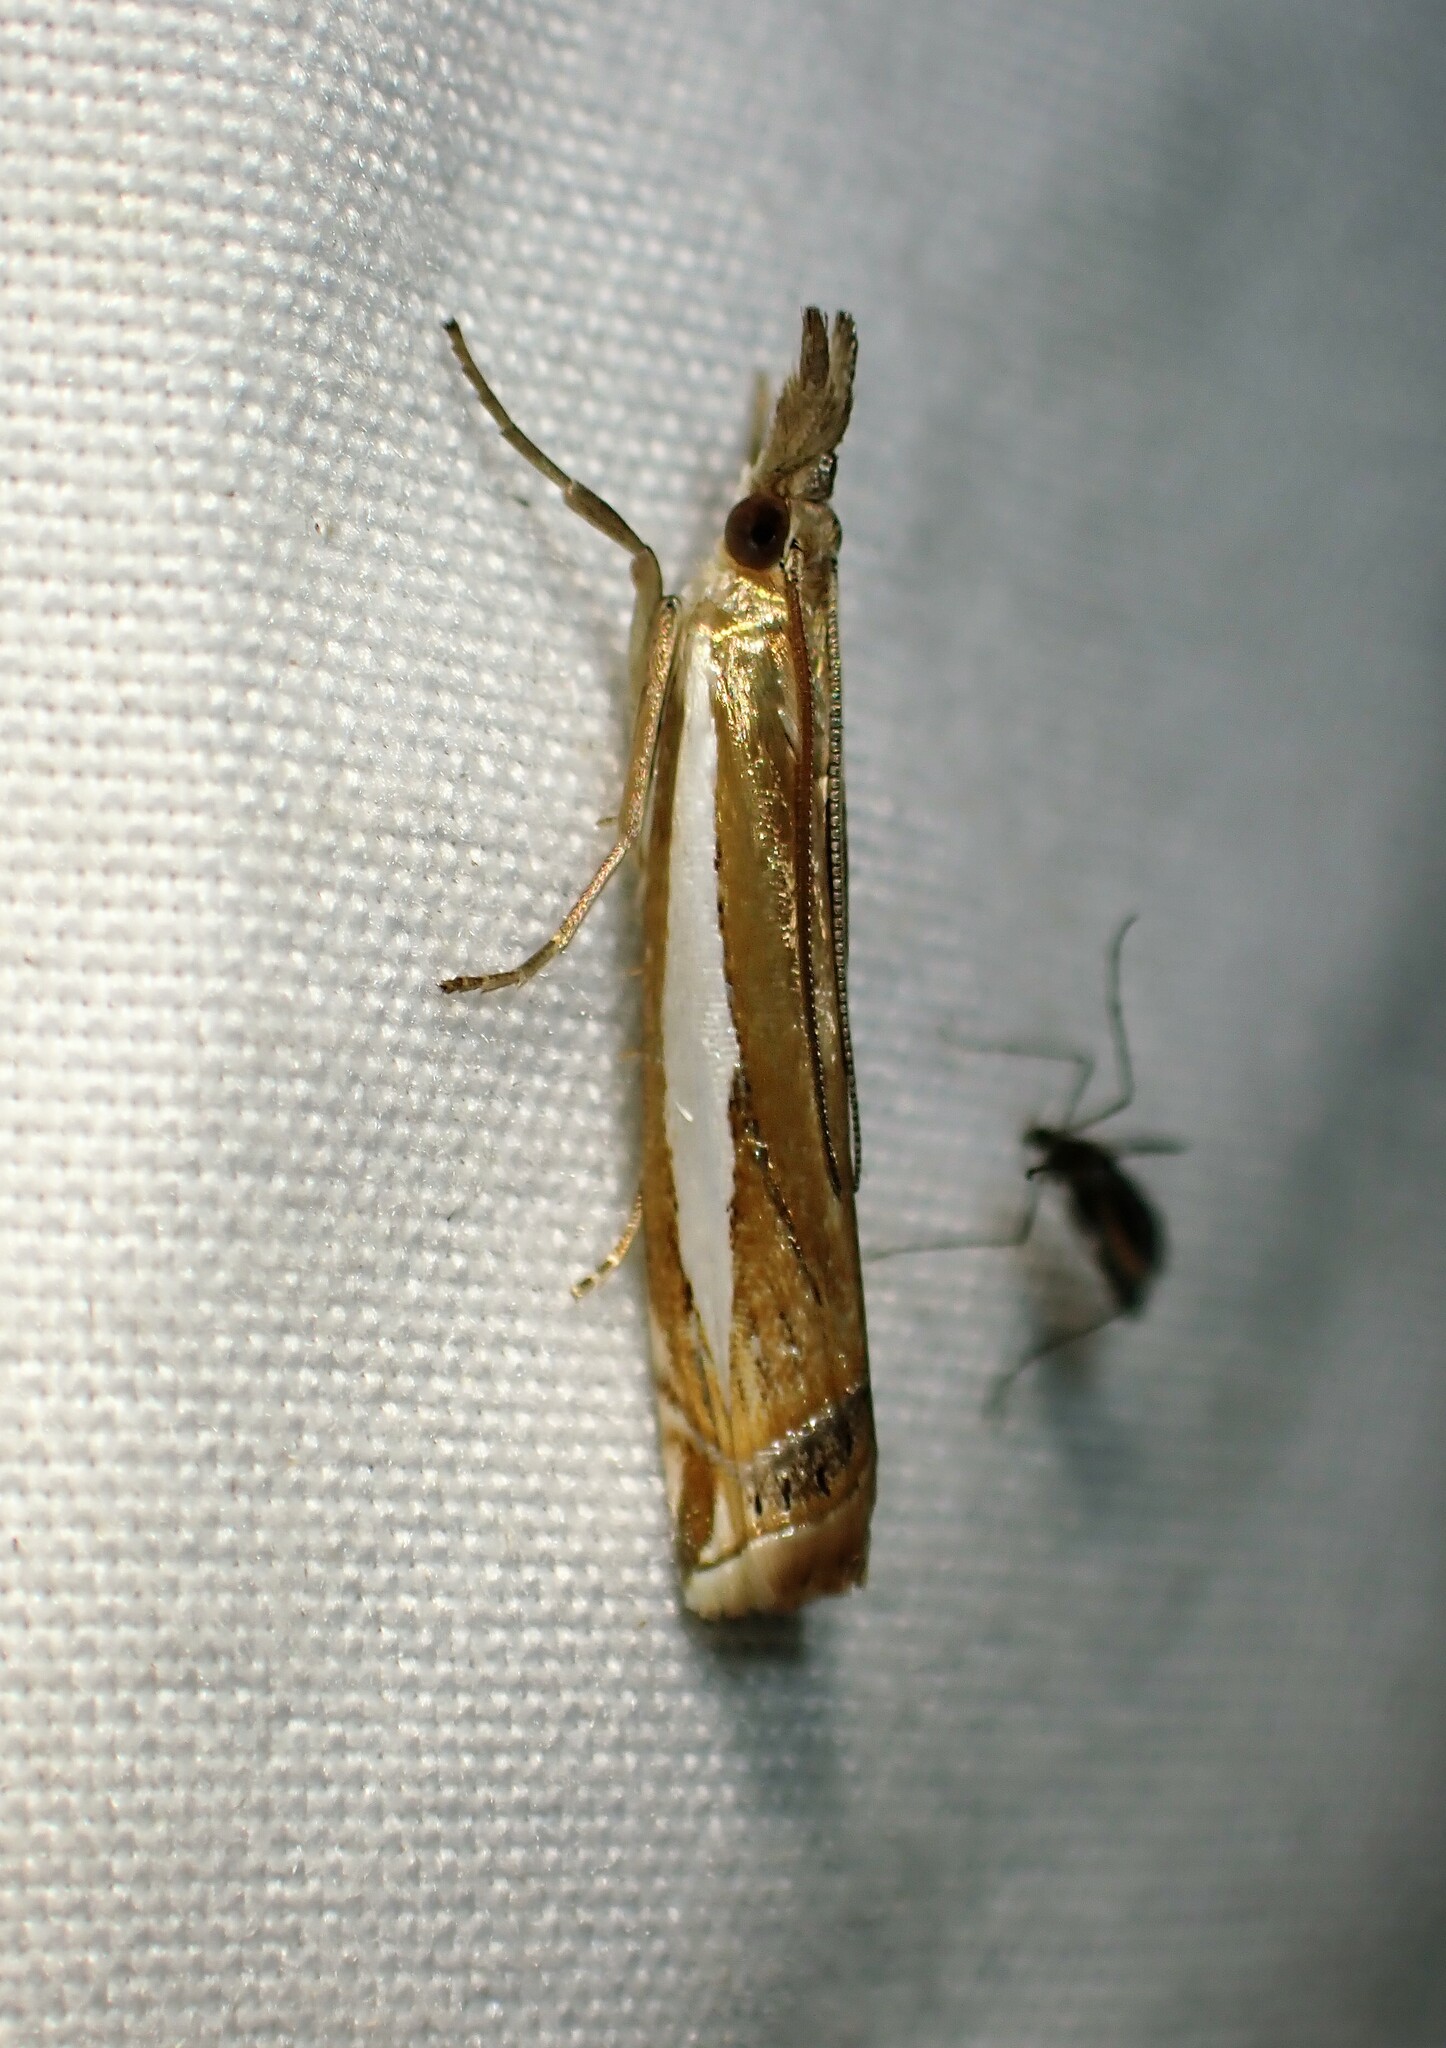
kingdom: Animalia
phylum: Arthropoda
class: Insecta
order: Lepidoptera
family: Crambidae
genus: Crambus
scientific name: Crambus praefectellus
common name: Common grass-veneer
